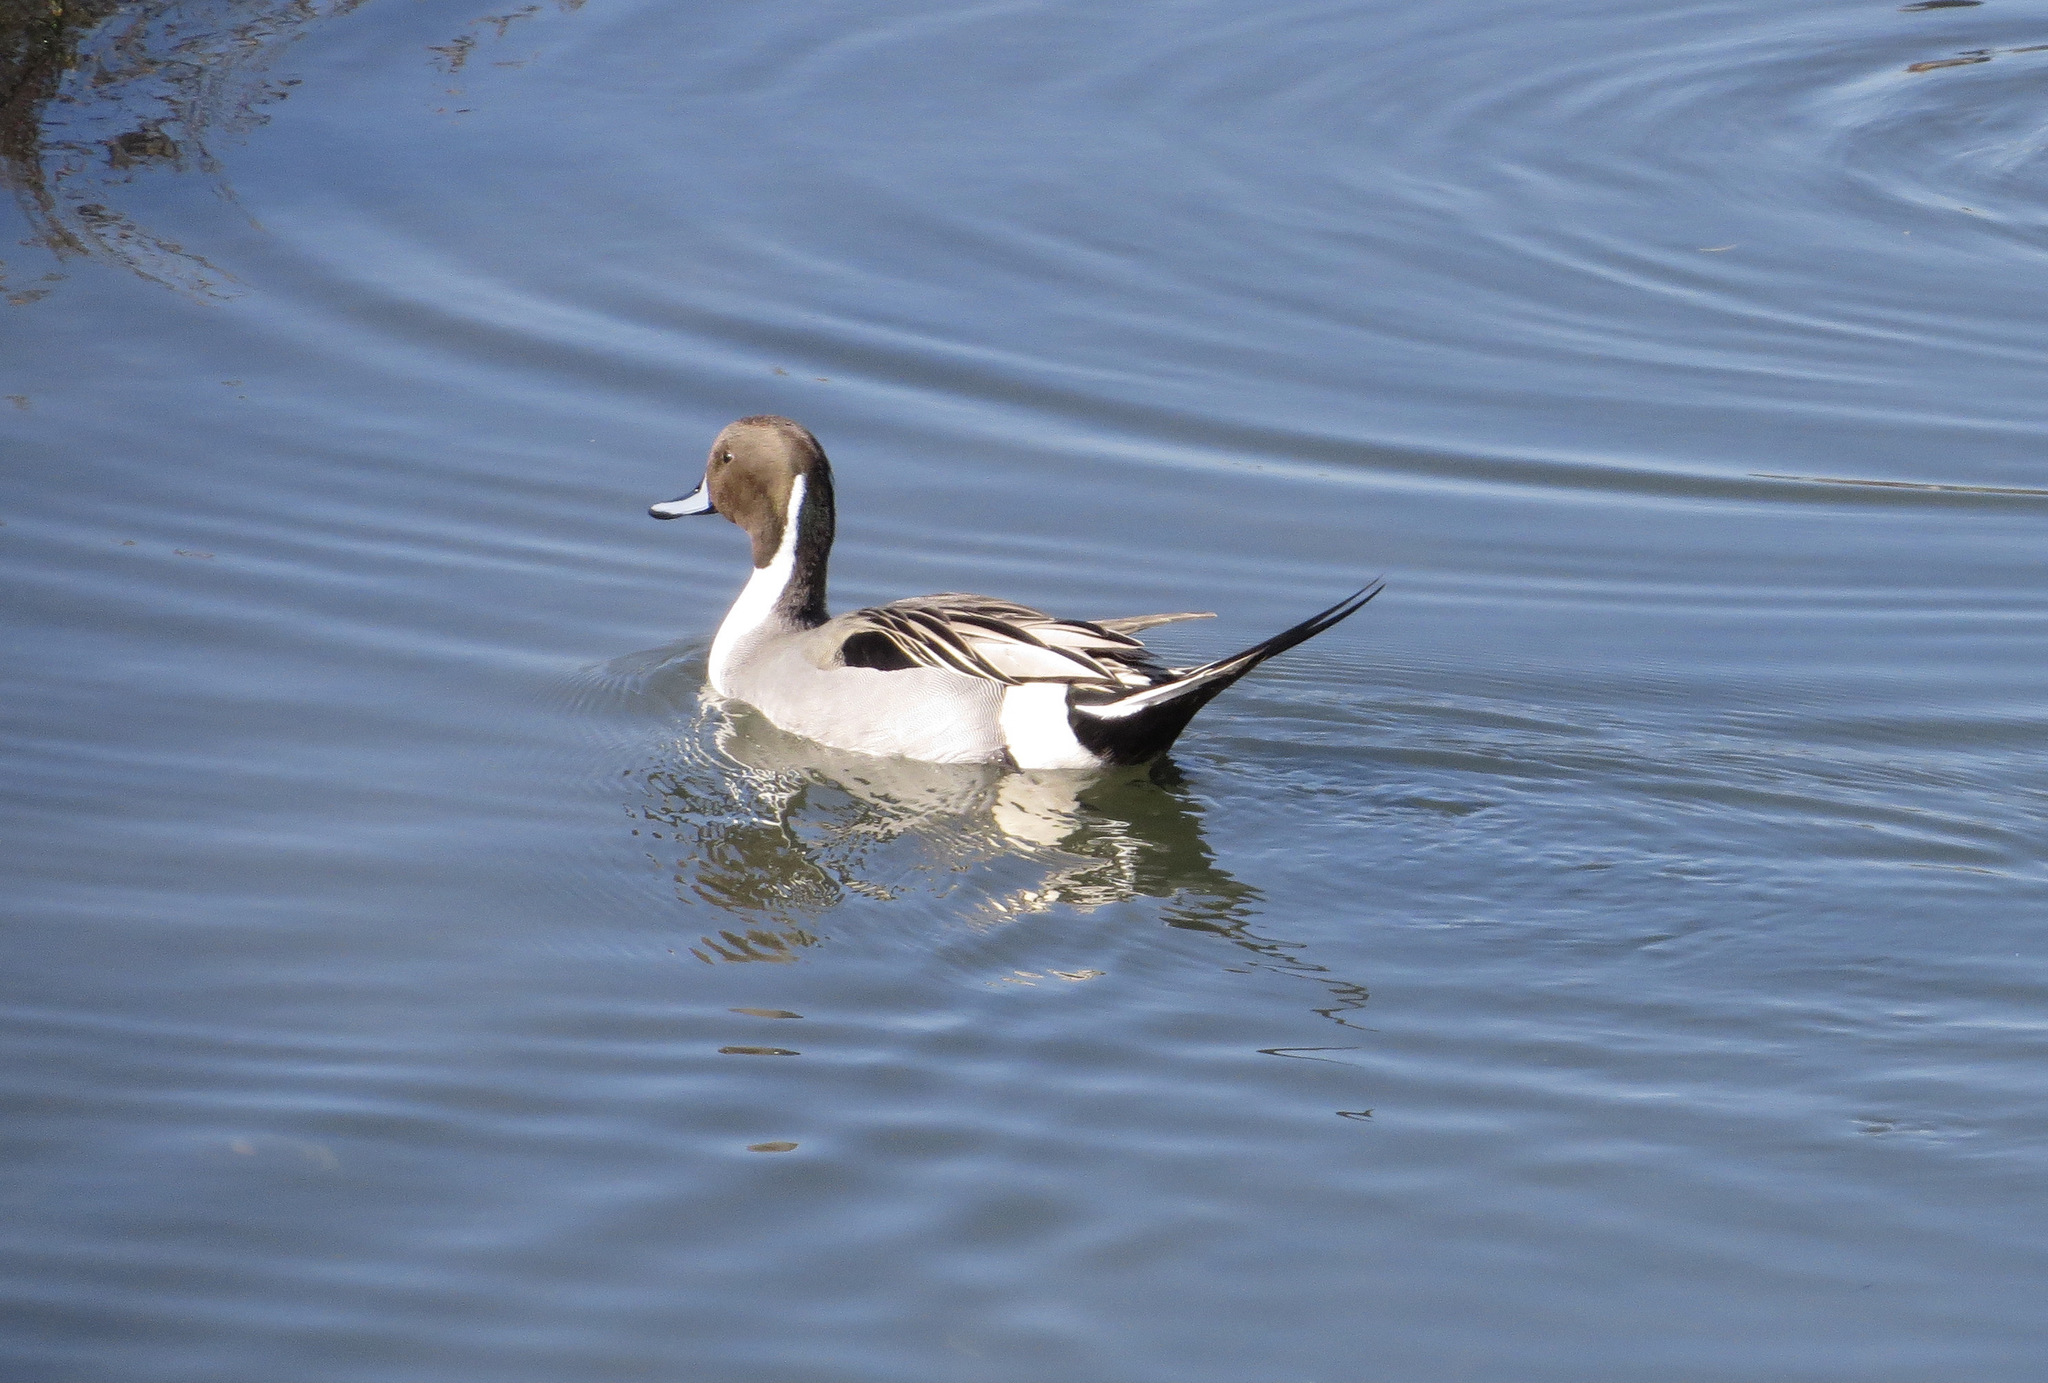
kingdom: Animalia
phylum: Chordata
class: Aves
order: Anseriformes
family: Anatidae
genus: Anas
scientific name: Anas acuta
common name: Northern pintail
